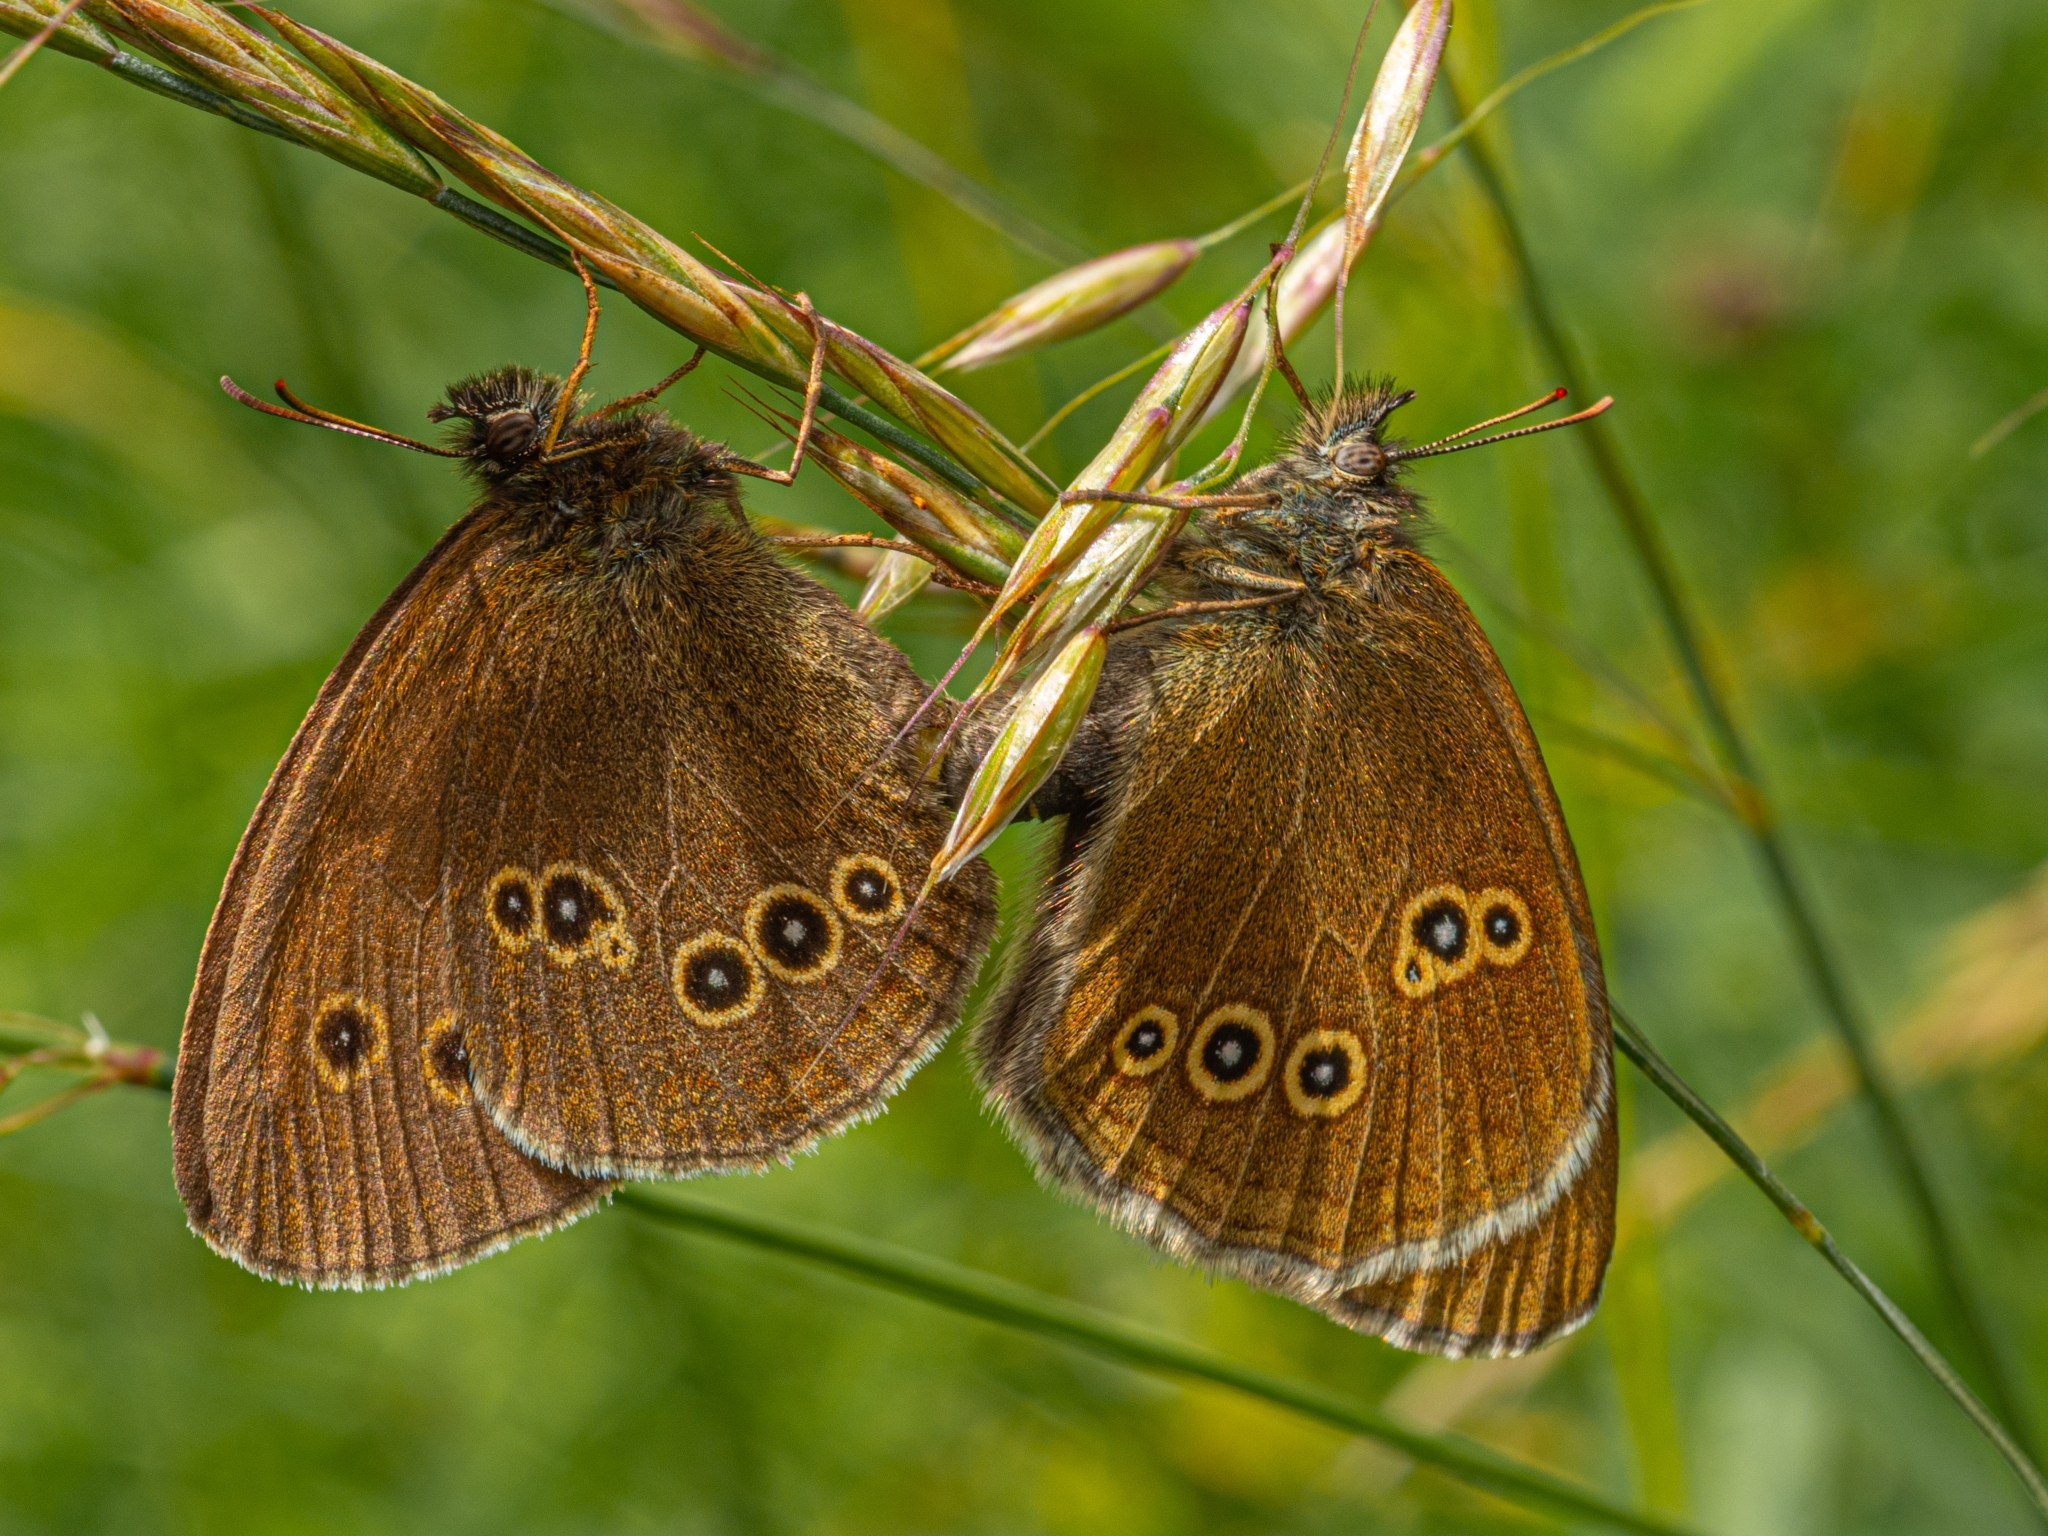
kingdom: Animalia
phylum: Arthropoda
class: Insecta
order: Lepidoptera
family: Nymphalidae
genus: Aphantopus
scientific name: Aphantopus hyperantus
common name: Ringlet
